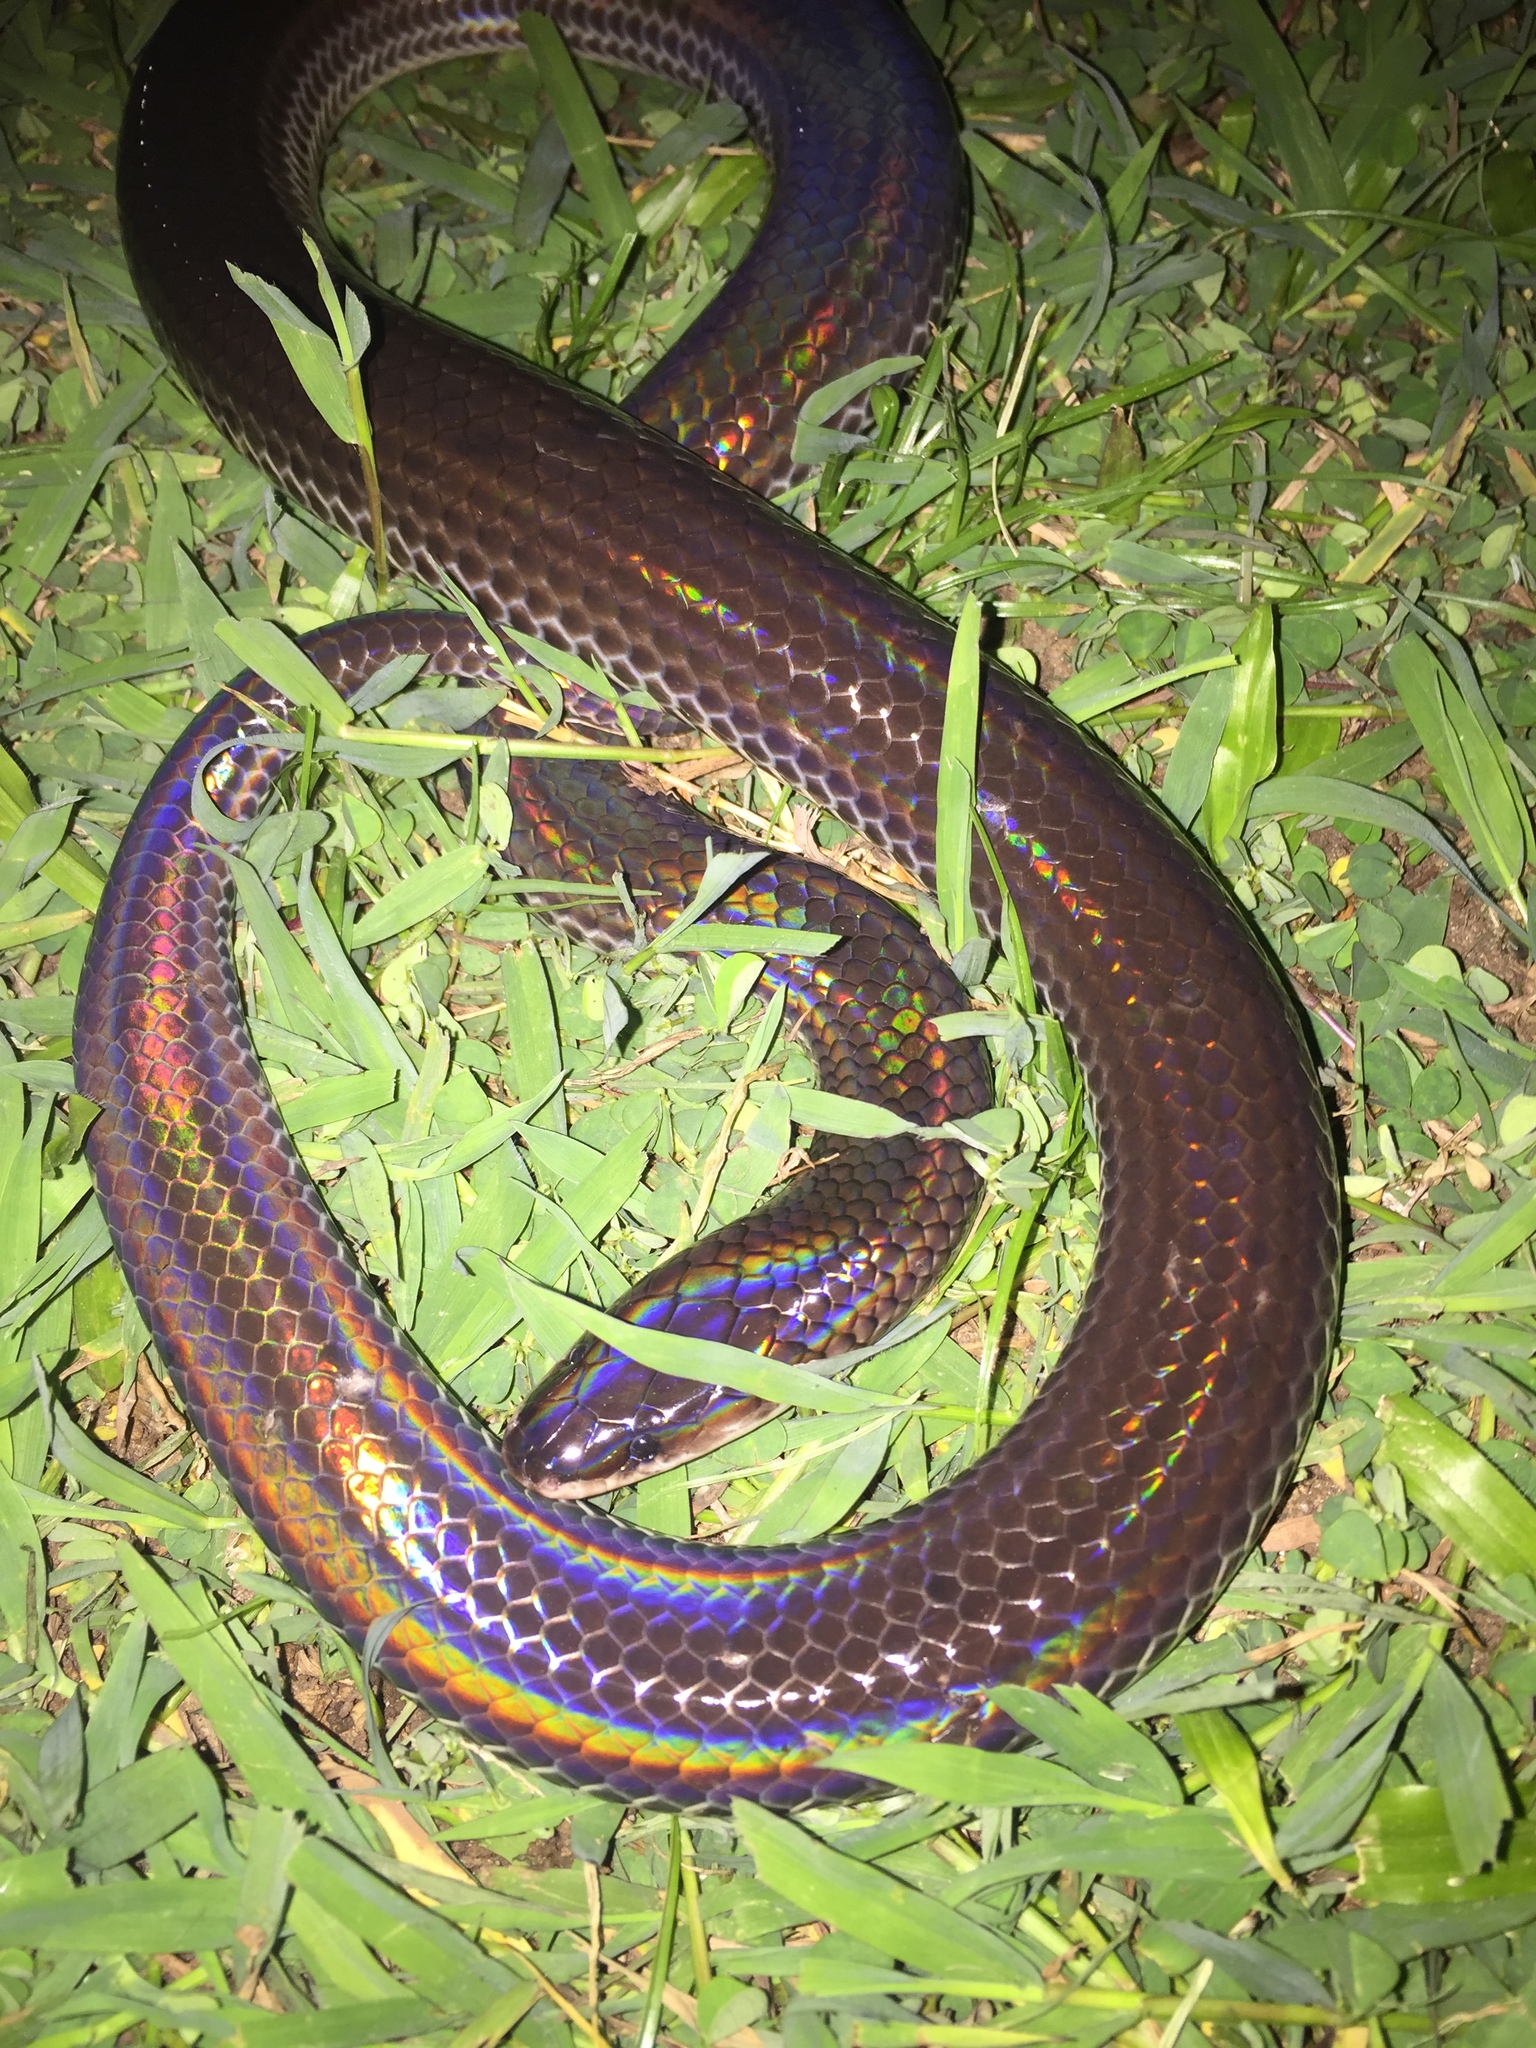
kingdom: Animalia
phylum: Chordata
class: Squamata
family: Xenopeltidae
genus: Xenopeltis
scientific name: Xenopeltis unicolor
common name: Sunbeam snake
